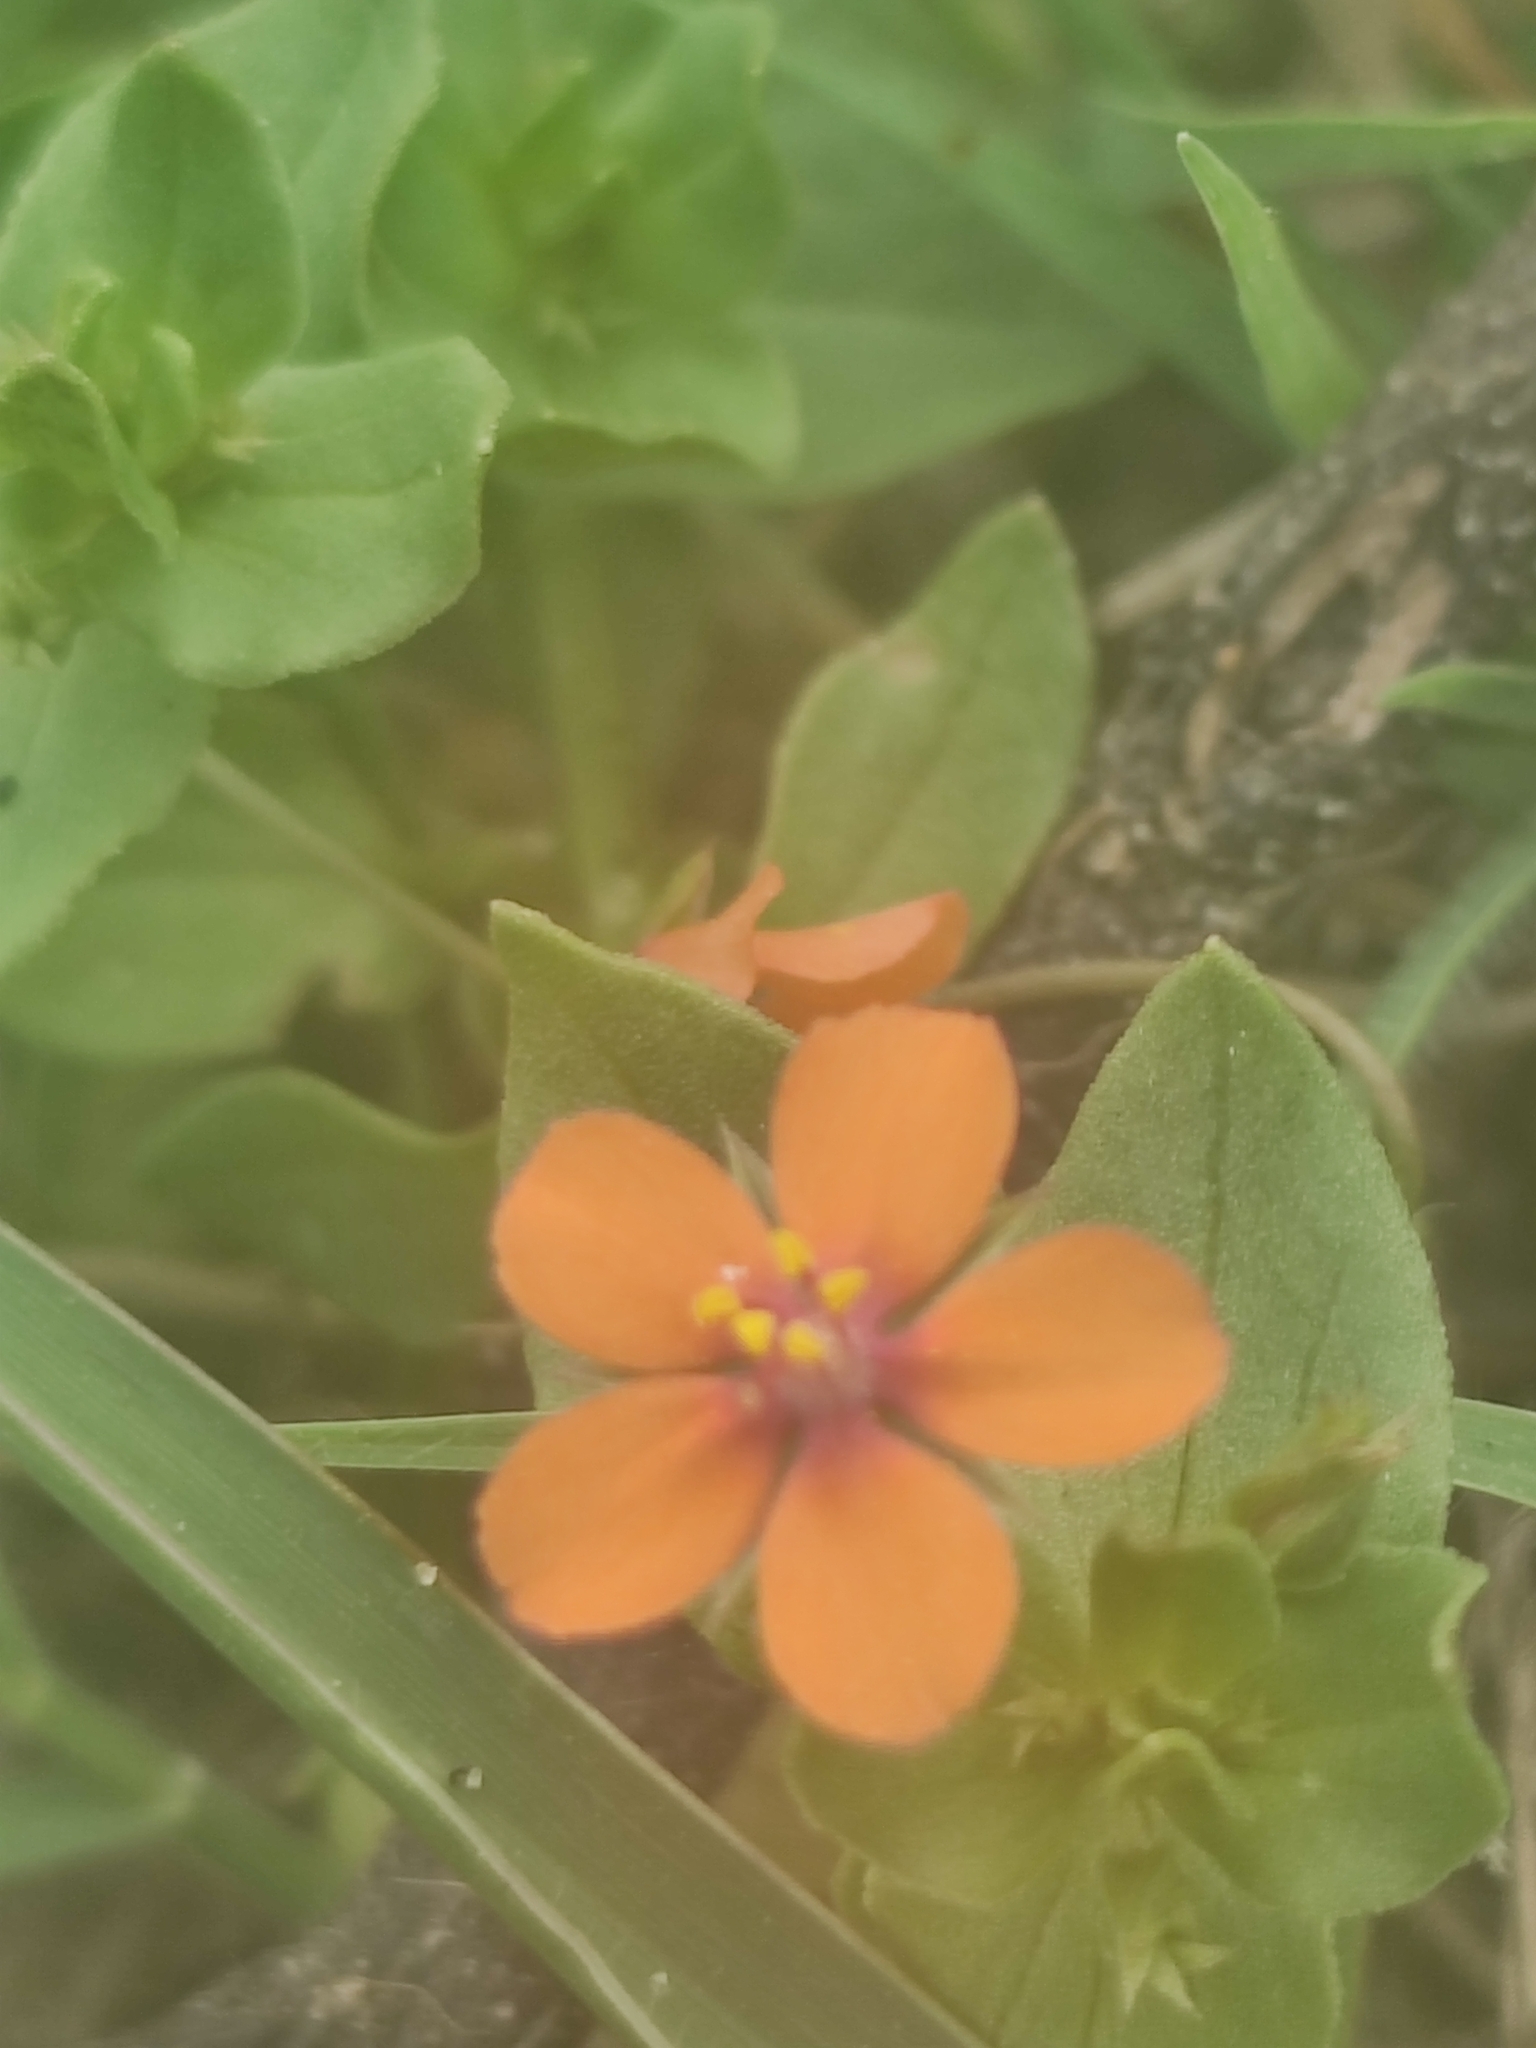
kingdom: Plantae
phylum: Tracheophyta
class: Magnoliopsida
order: Ericales
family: Primulaceae
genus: Lysimachia
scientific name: Lysimachia arvensis
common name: Scarlet pimpernel
